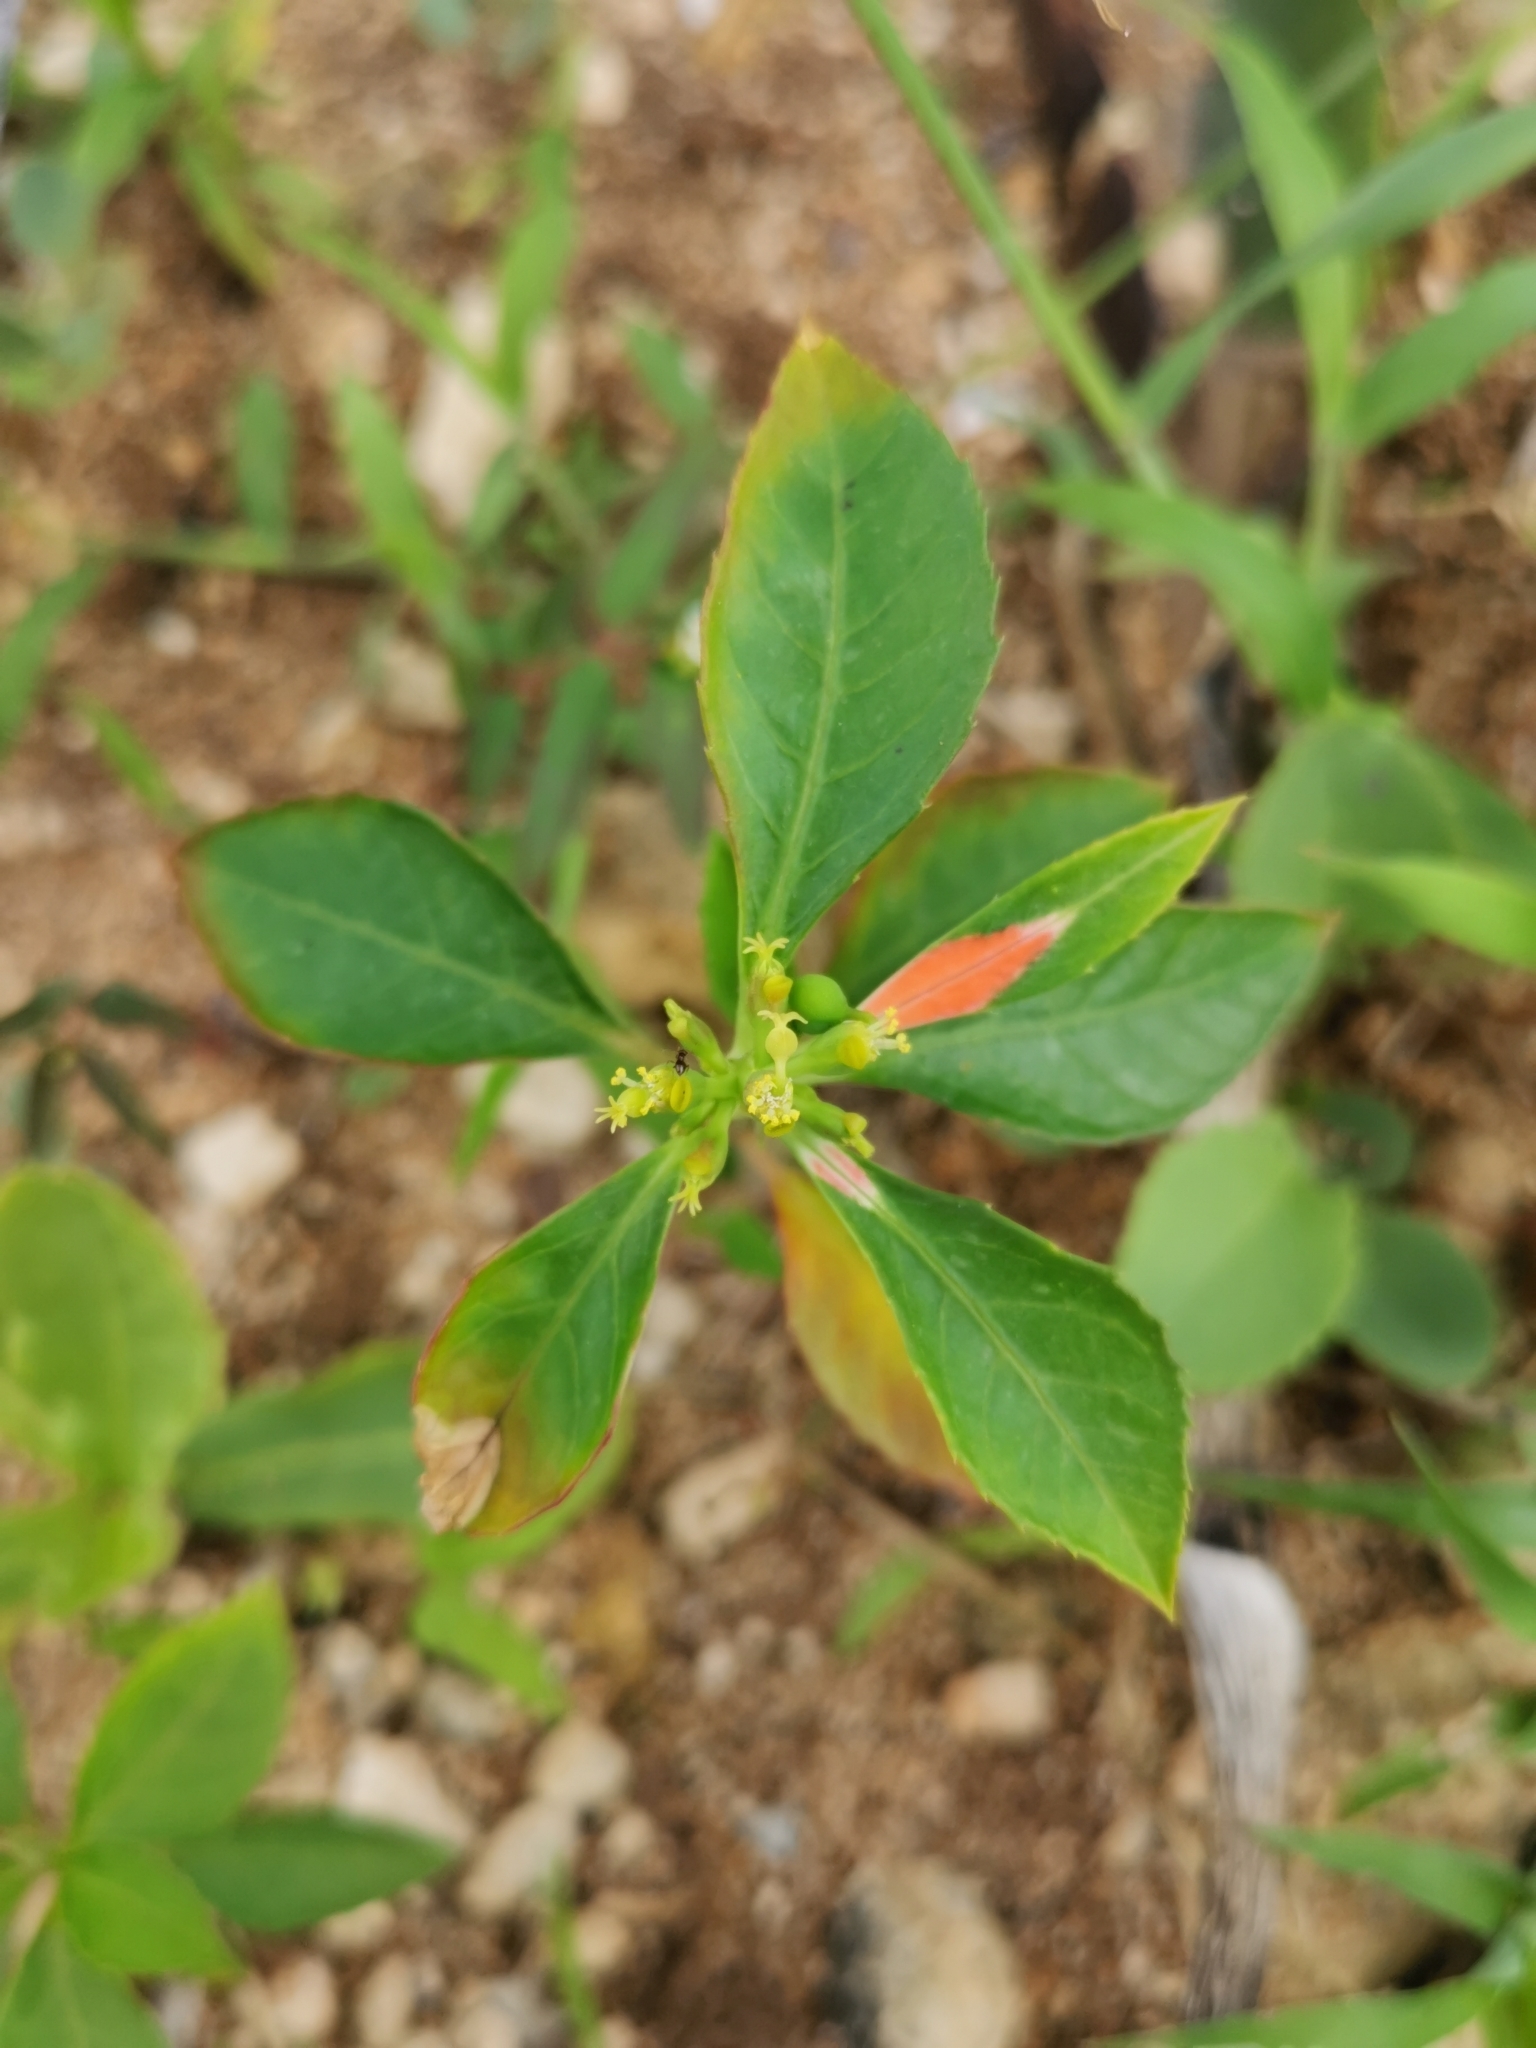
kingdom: Plantae
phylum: Tracheophyta
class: Magnoliopsida
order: Malpighiales
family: Euphorbiaceae
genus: Euphorbia
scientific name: Euphorbia heterophylla
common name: Mexican fireplant
